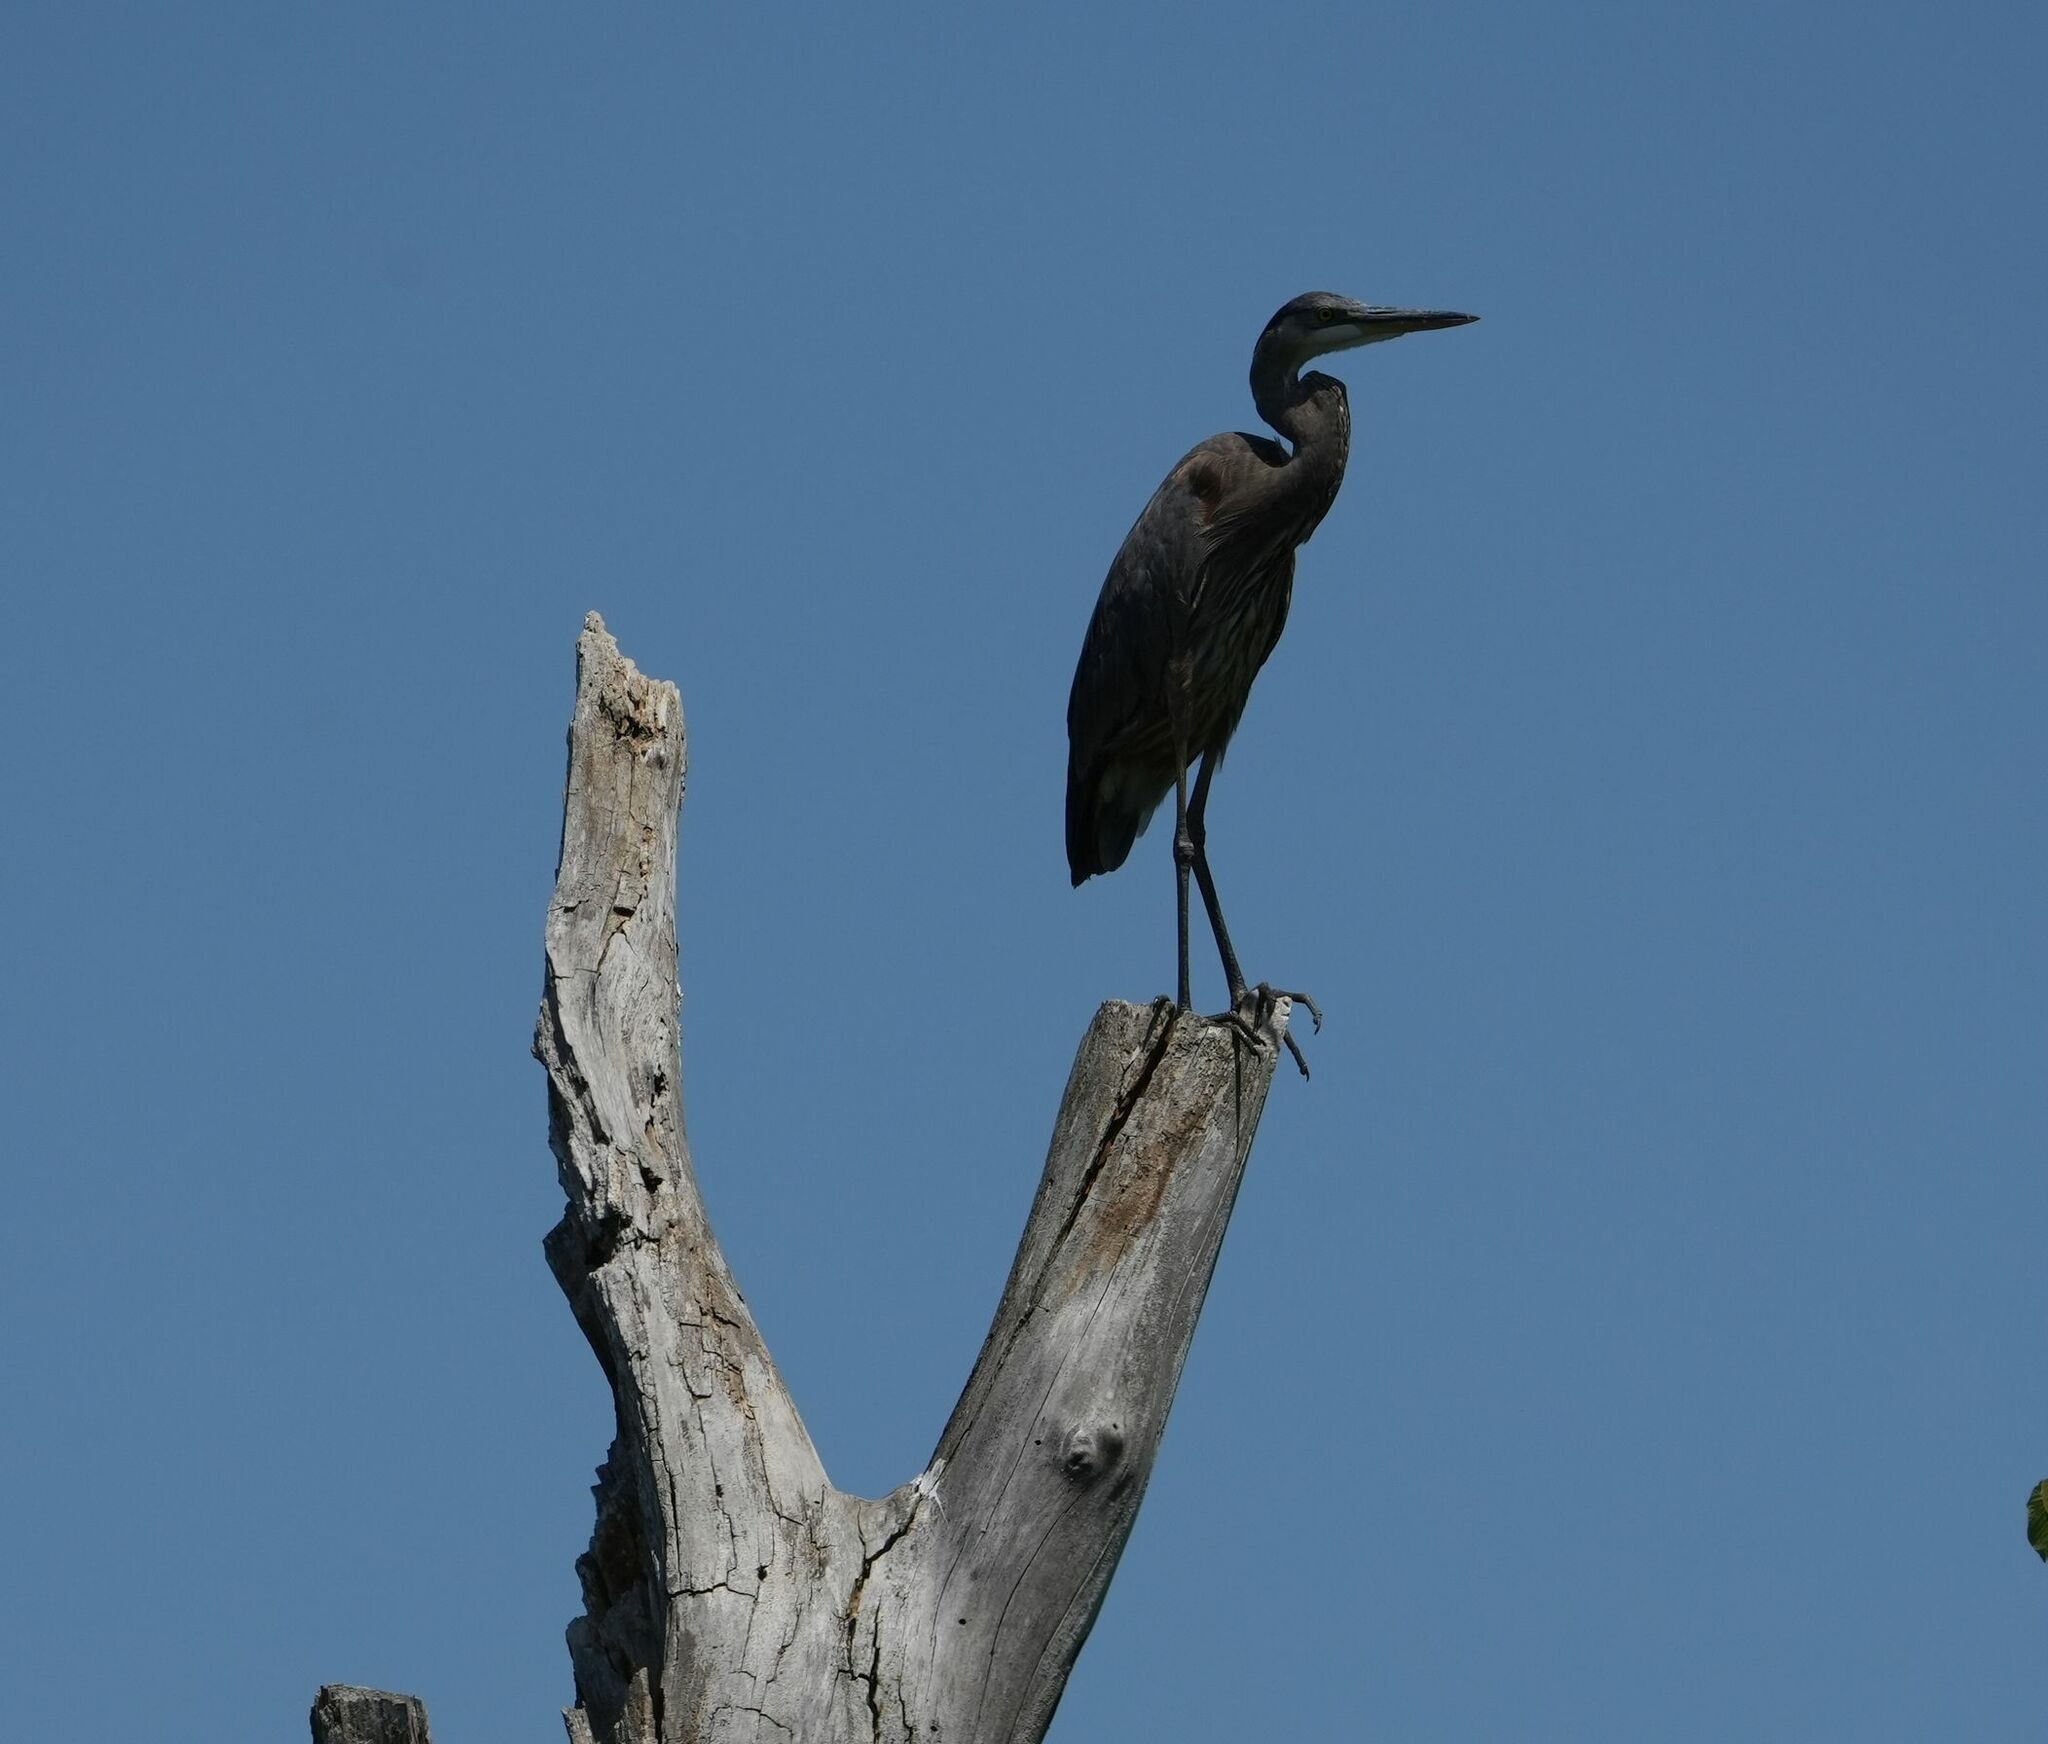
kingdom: Animalia
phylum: Chordata
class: Aves
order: Pelecaniformes
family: Ardeidae
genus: Ardea
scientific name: Ardea herodias
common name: Great blue heron
